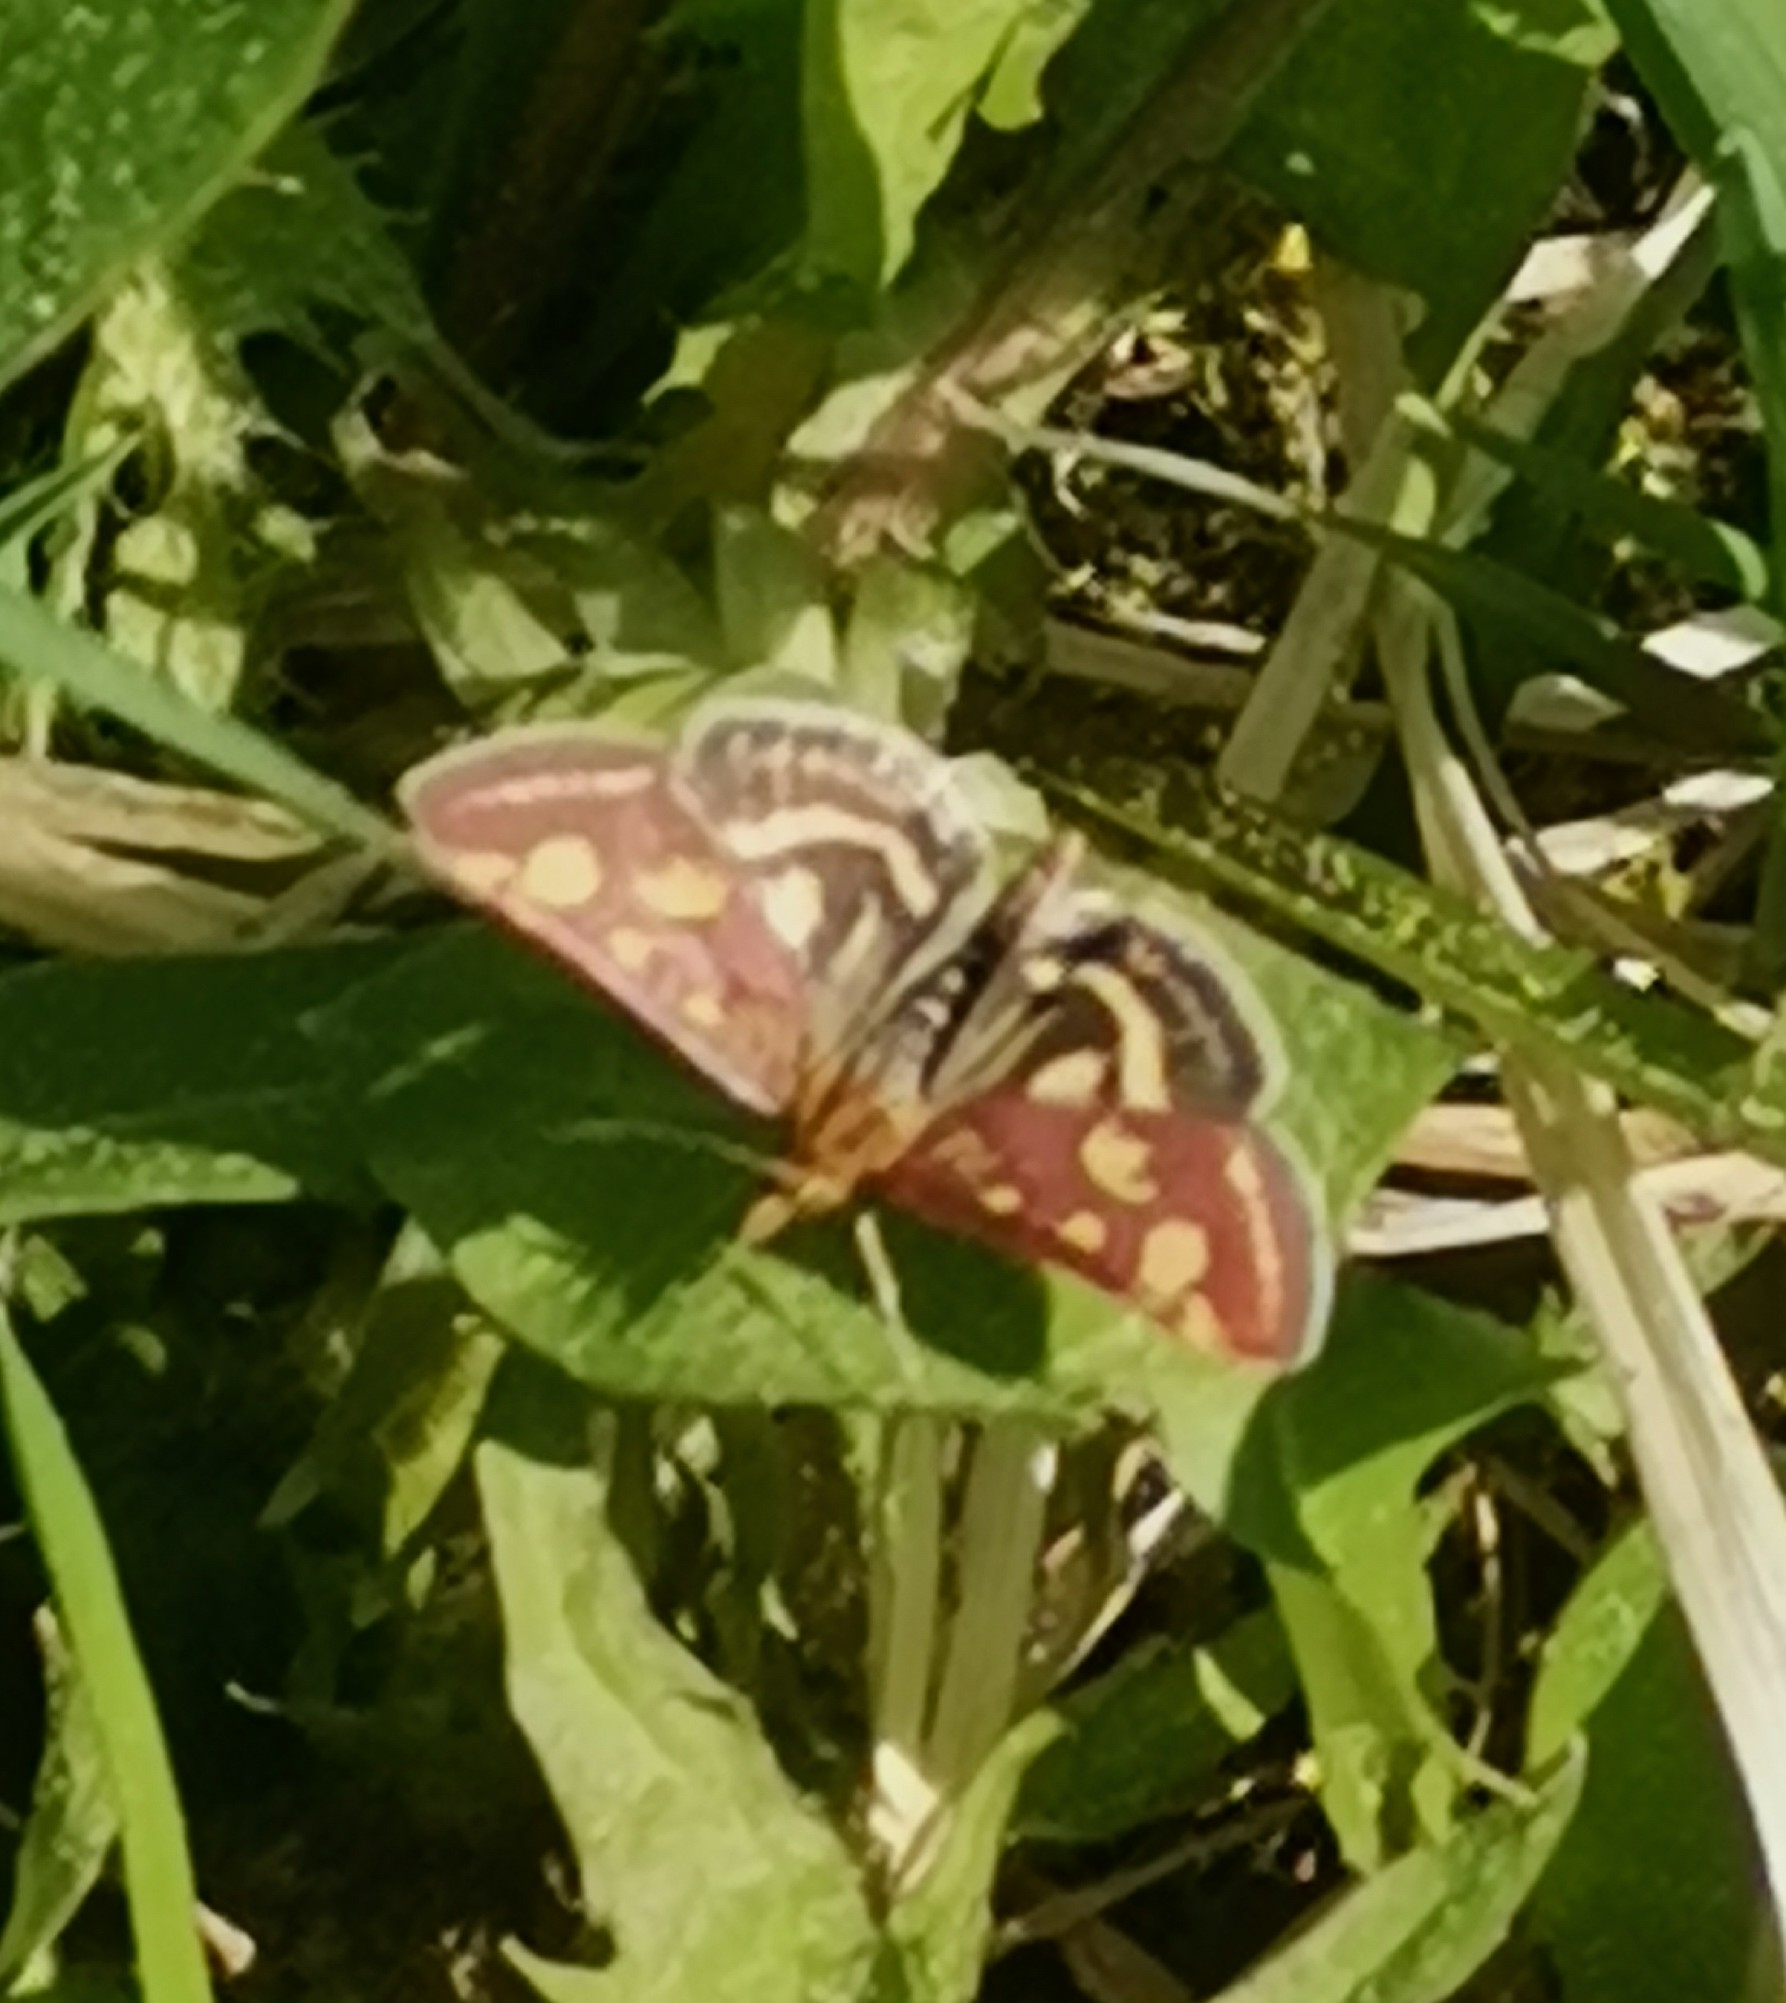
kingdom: Animalia
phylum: Arthropoda
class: Insecta
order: Lepidoptera
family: Crambidae
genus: Pyrausta
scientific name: Pyrausta purpuralis
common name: Common purple & gold
